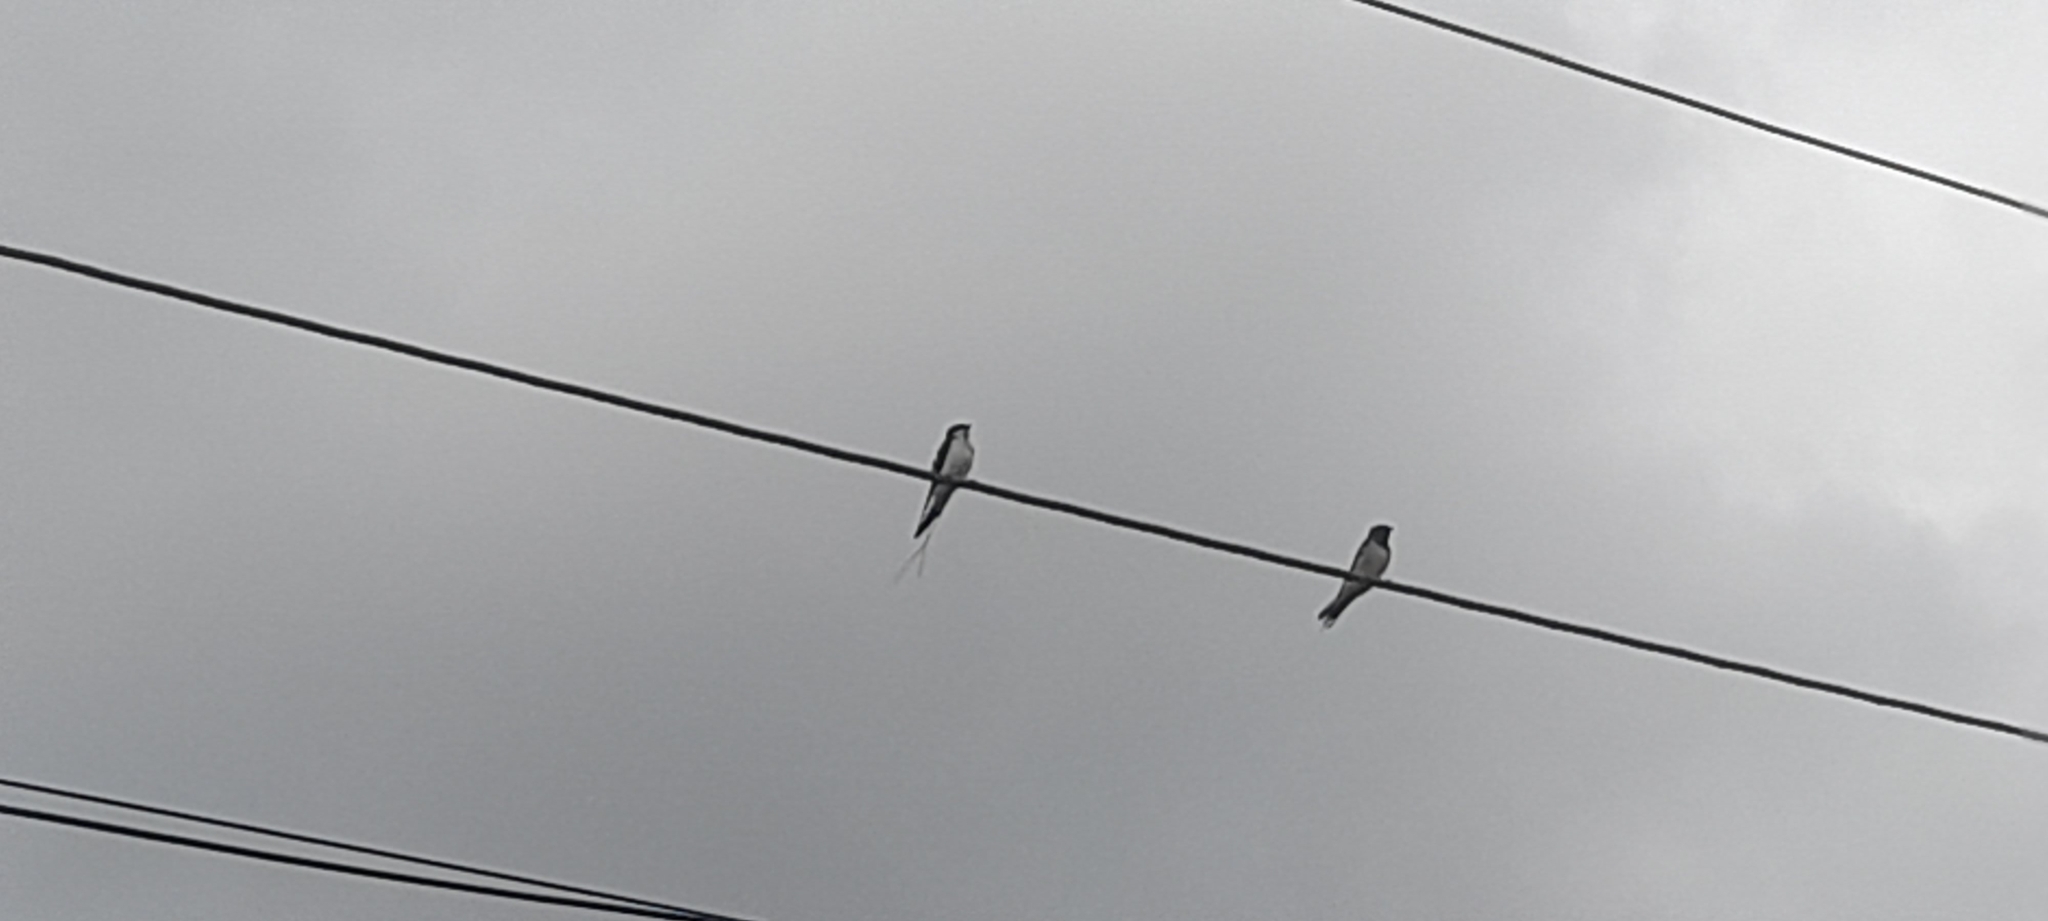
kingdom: Animalia
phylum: Chordata
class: Aves
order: Passeriformes
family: Hirundinidae
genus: Hirundo
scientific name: Hirundo rustica
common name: Barn swallow
